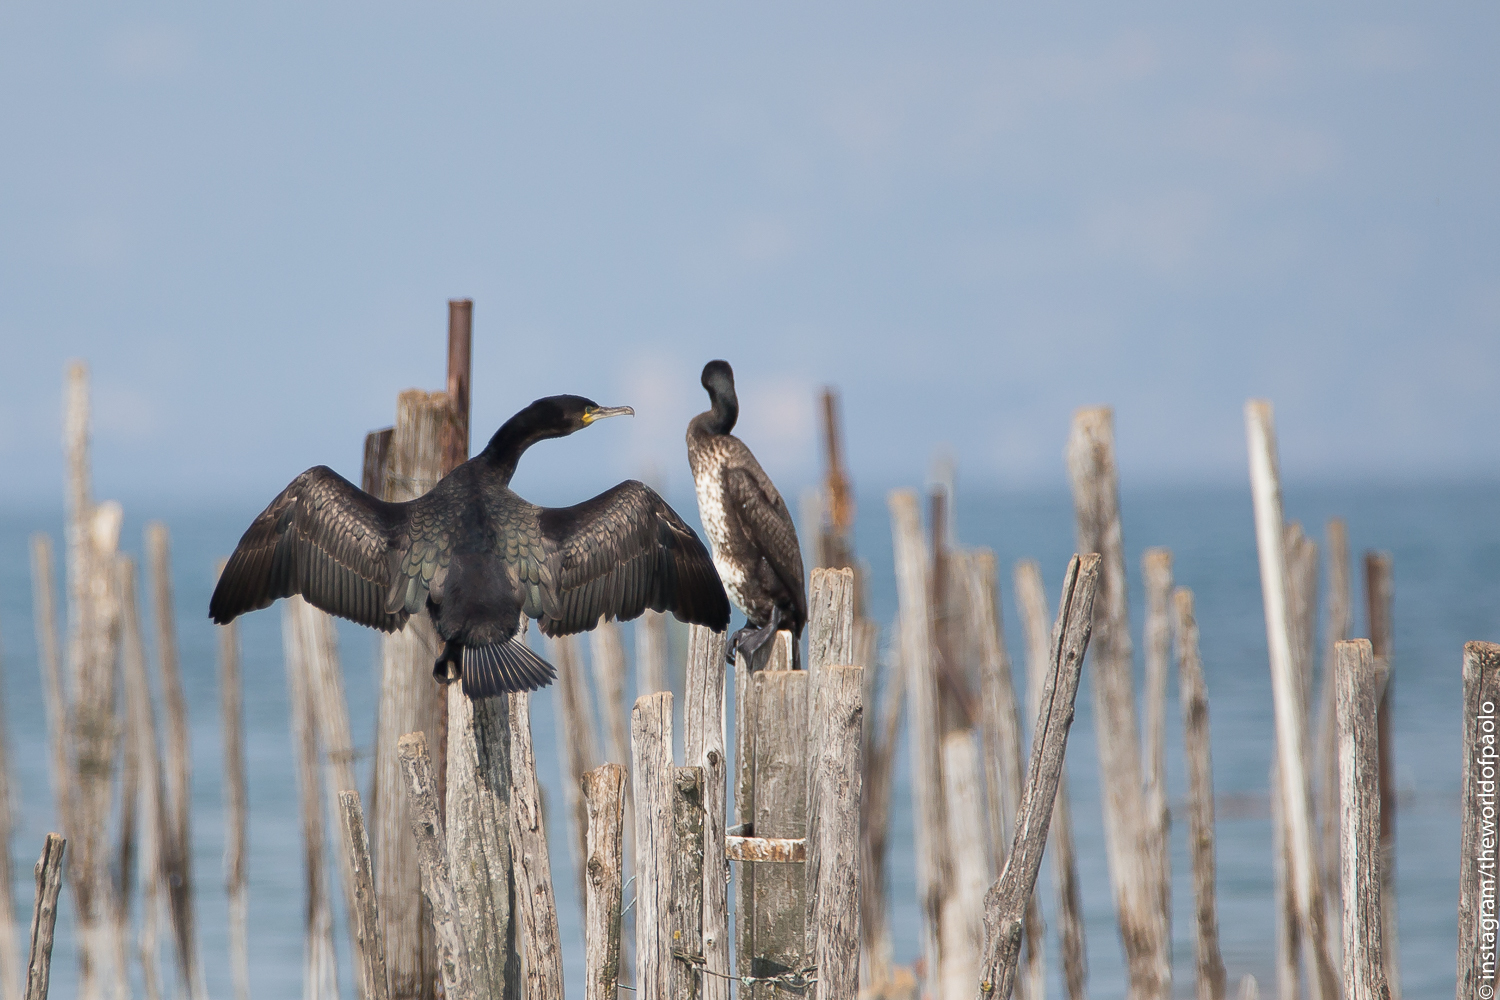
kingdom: Animalia
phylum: Chordata
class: Aves
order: Suliformes
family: Phalacrocoracidae
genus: Phalacrocorax
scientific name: Phalacrocorax carbo
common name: Great cormorant
